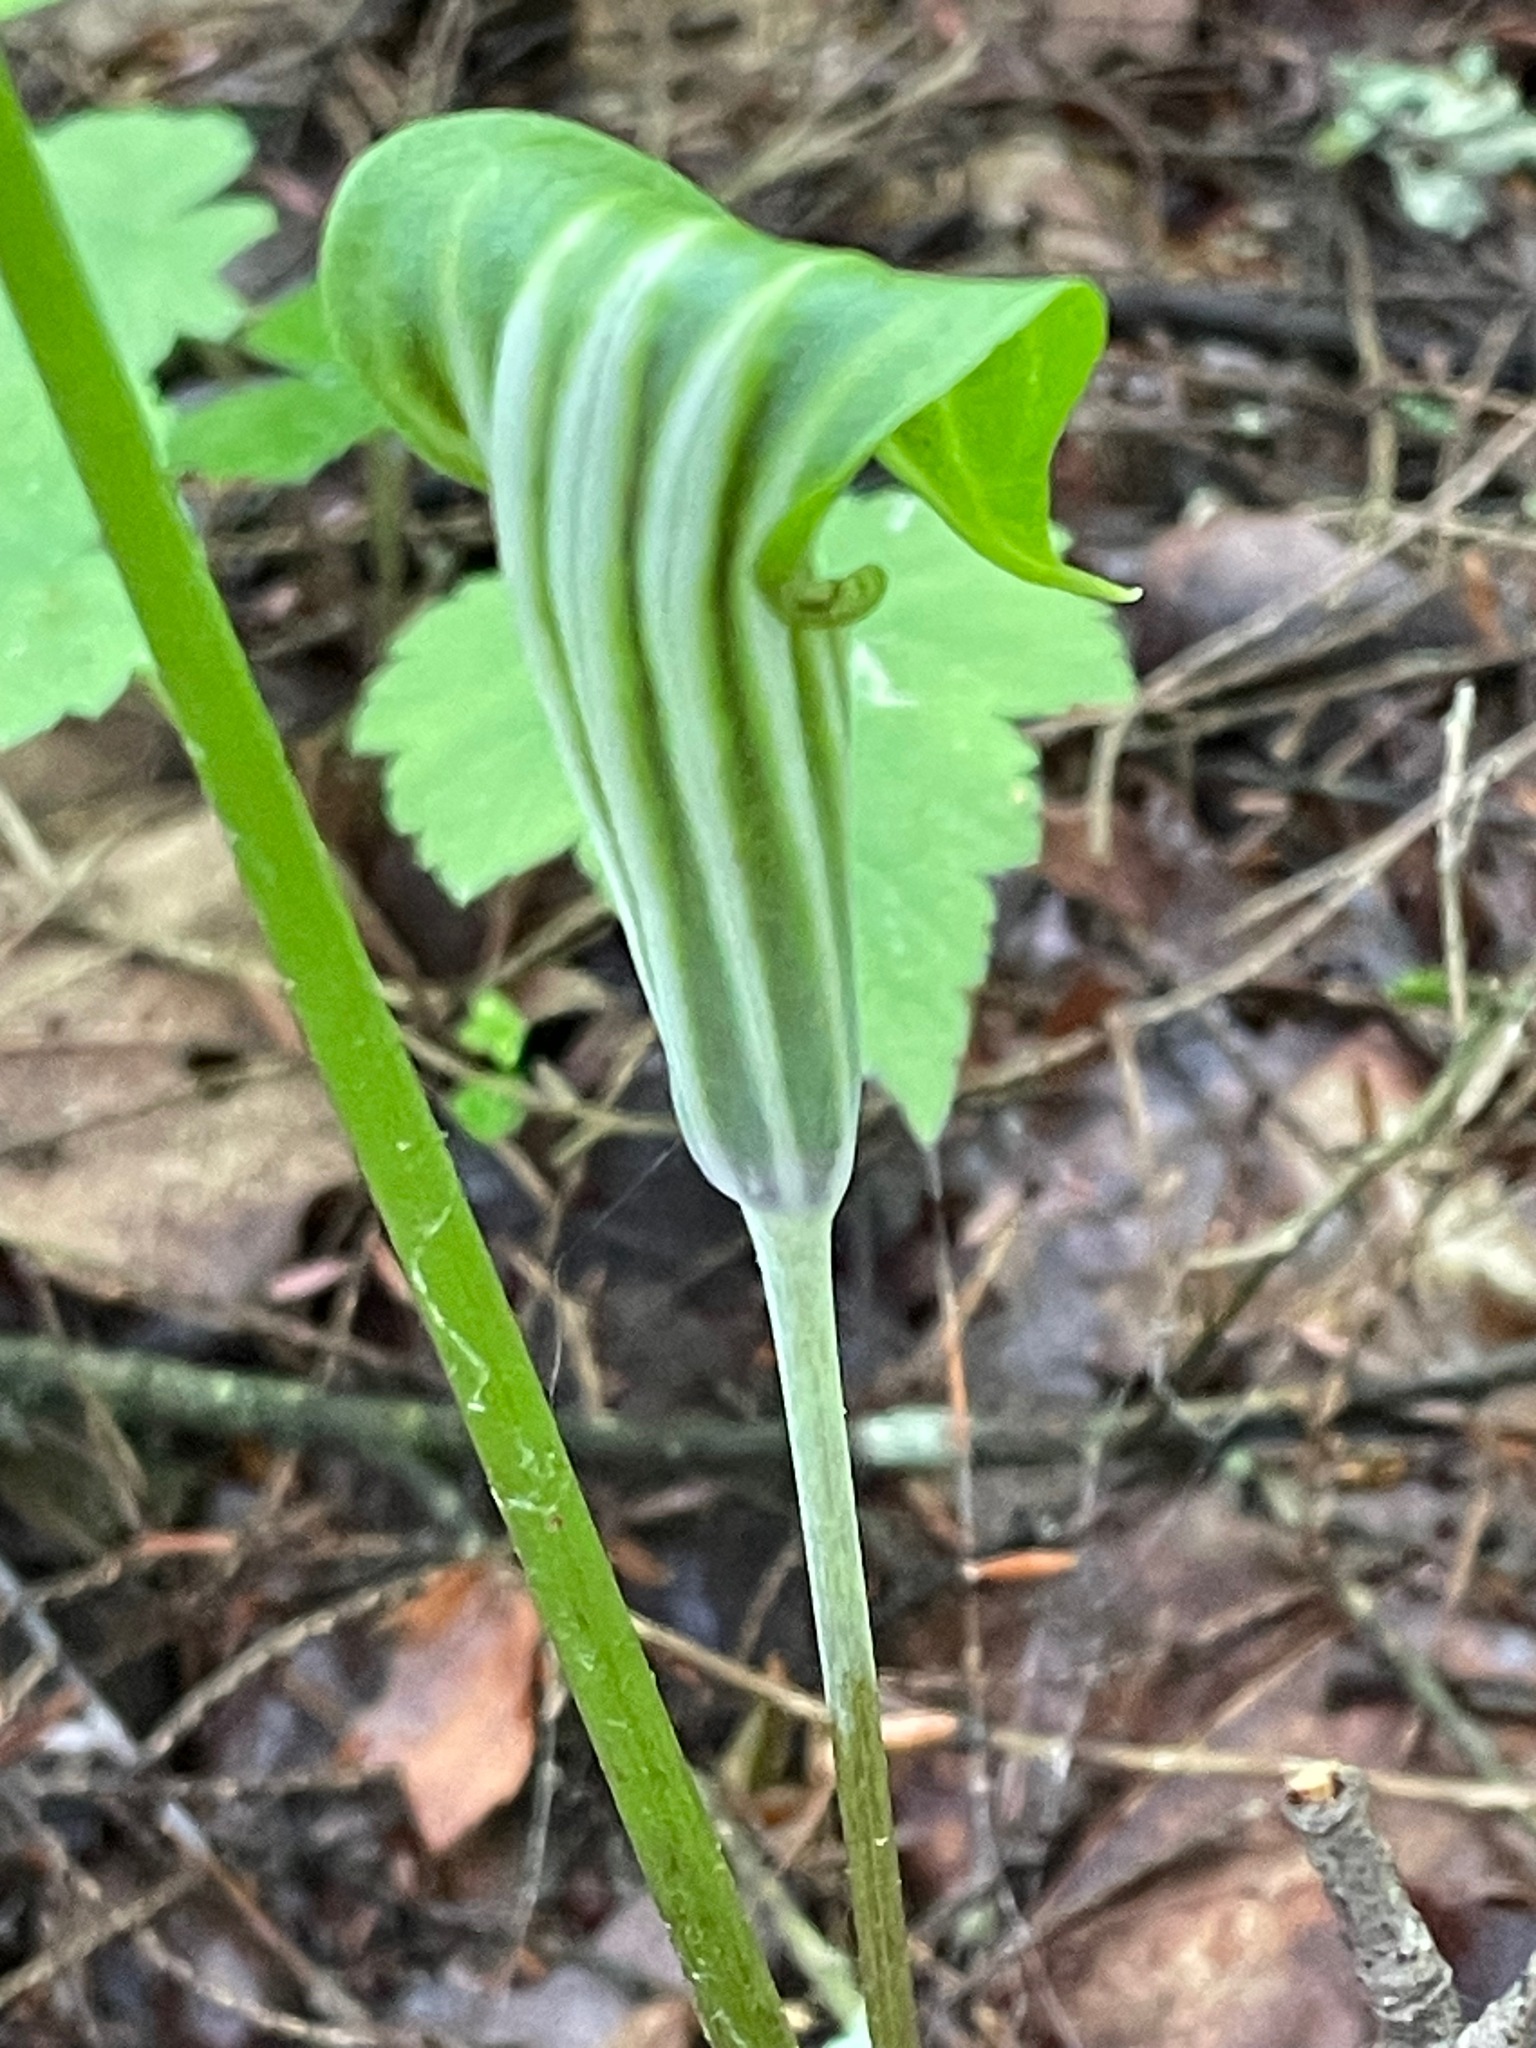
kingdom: Plantae
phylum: Tracheophyta
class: Liliopsida
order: Alismatales
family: Araceae
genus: Arisaema
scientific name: Arisaema stewardsonii
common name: Swamp jack-in-the-pulpit
